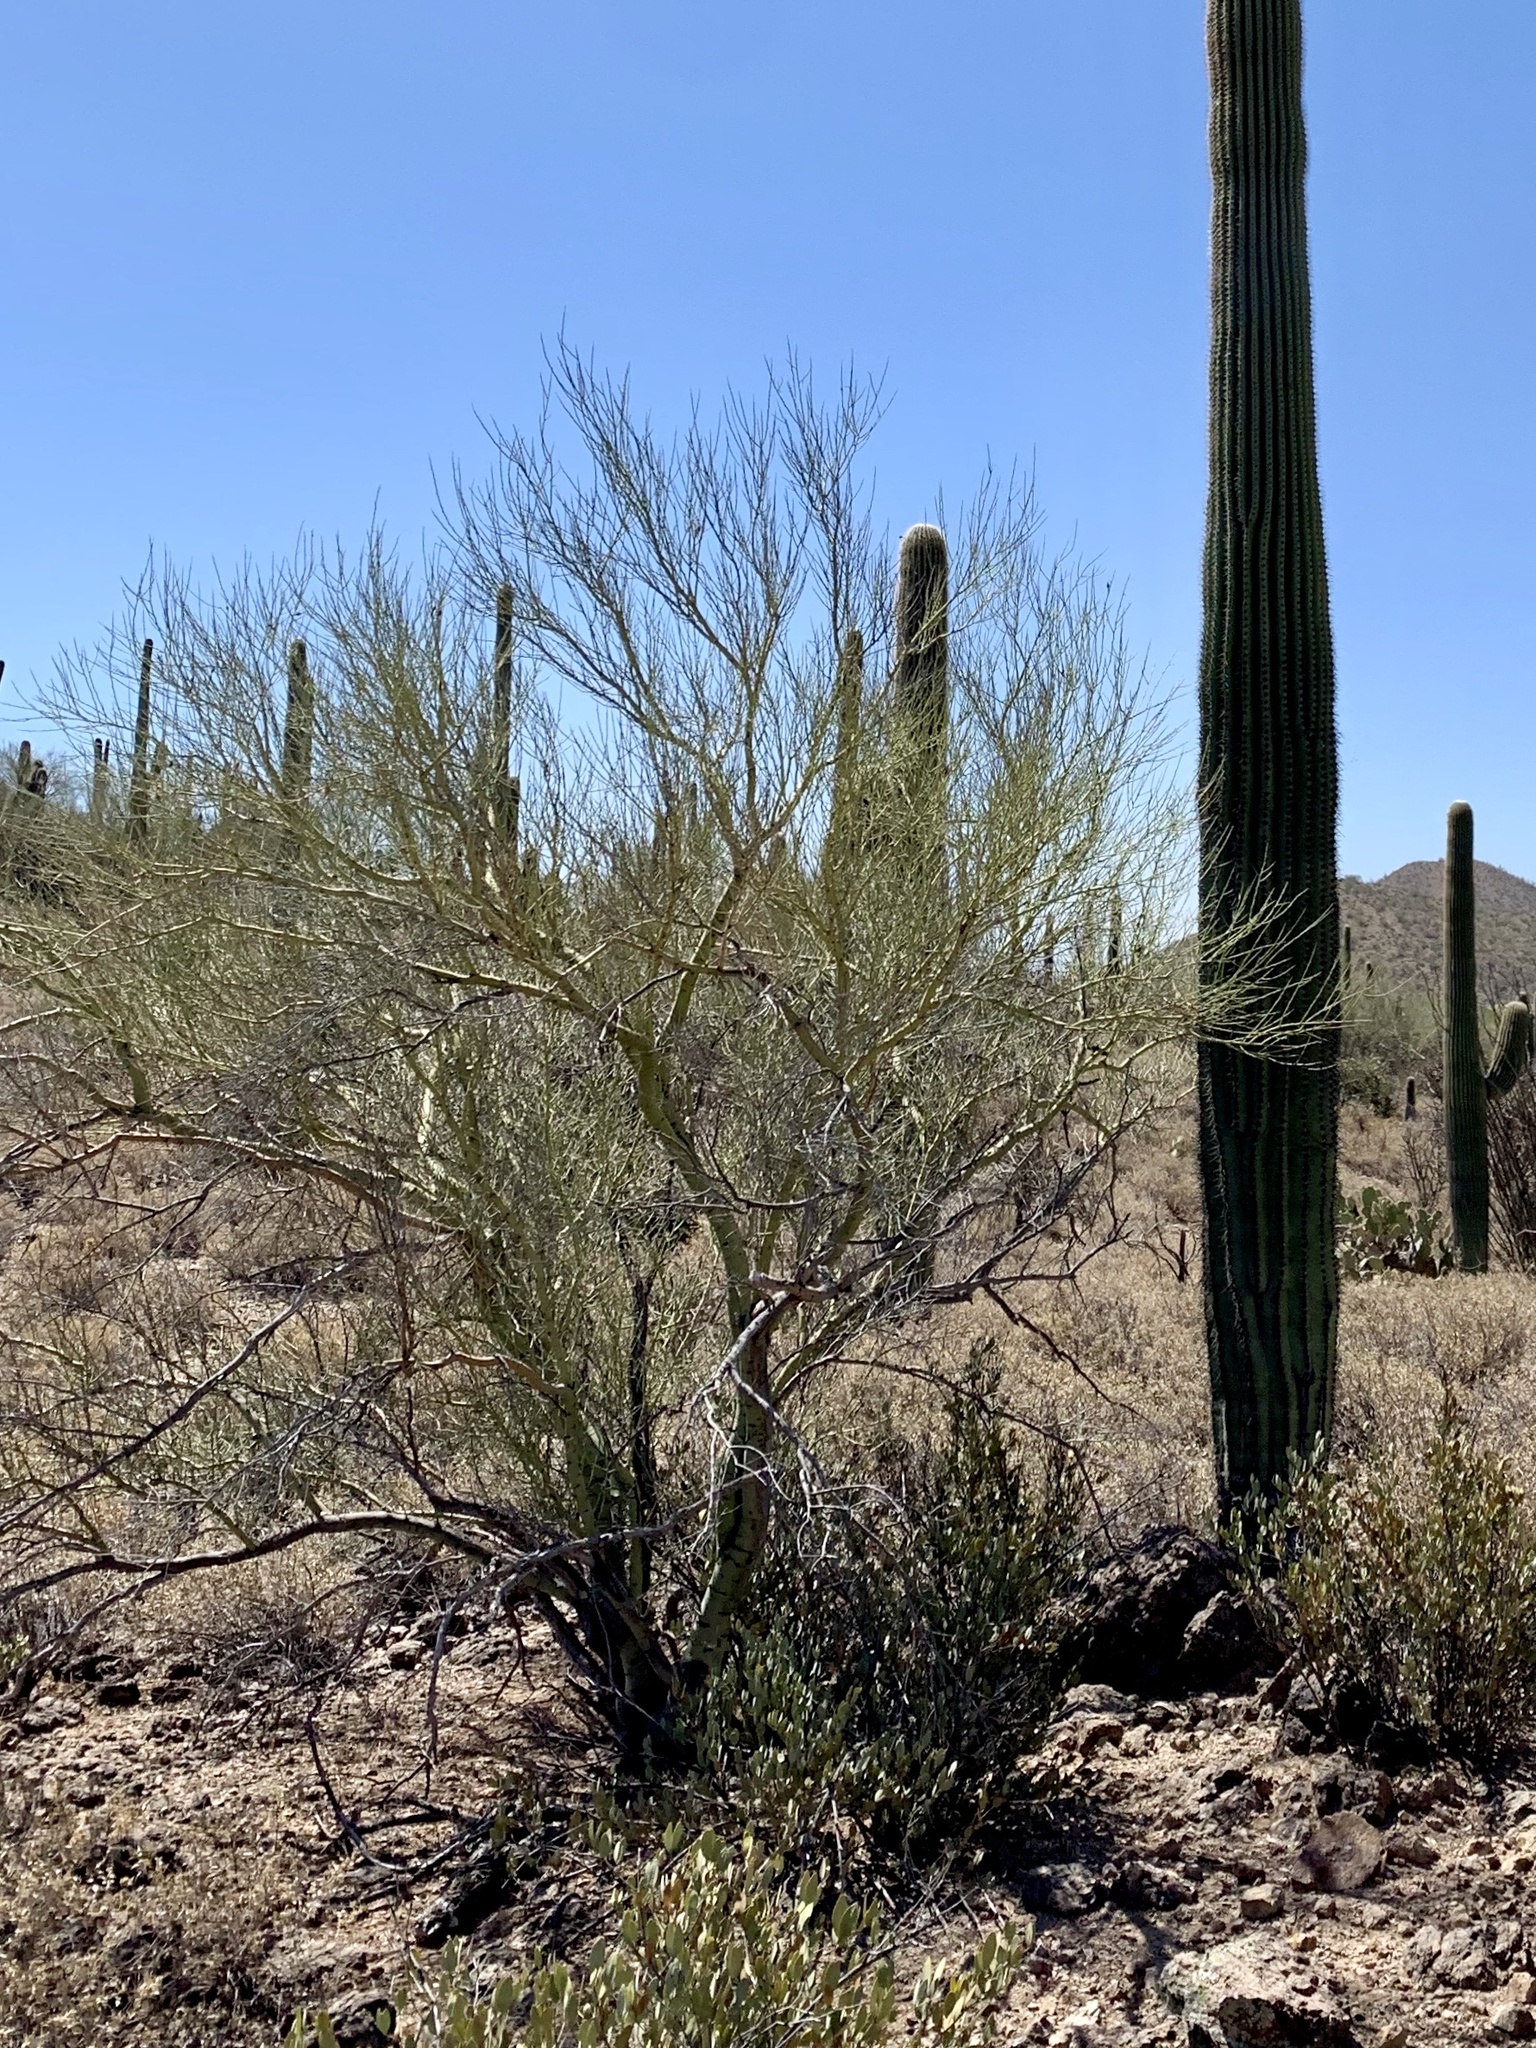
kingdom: Plantae
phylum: Tracheophyta
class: Magnoliopsida
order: Fabales
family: Fabaceae
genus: Parkinsonia
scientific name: Parkinsonia microphylla
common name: Yellow paloverde
